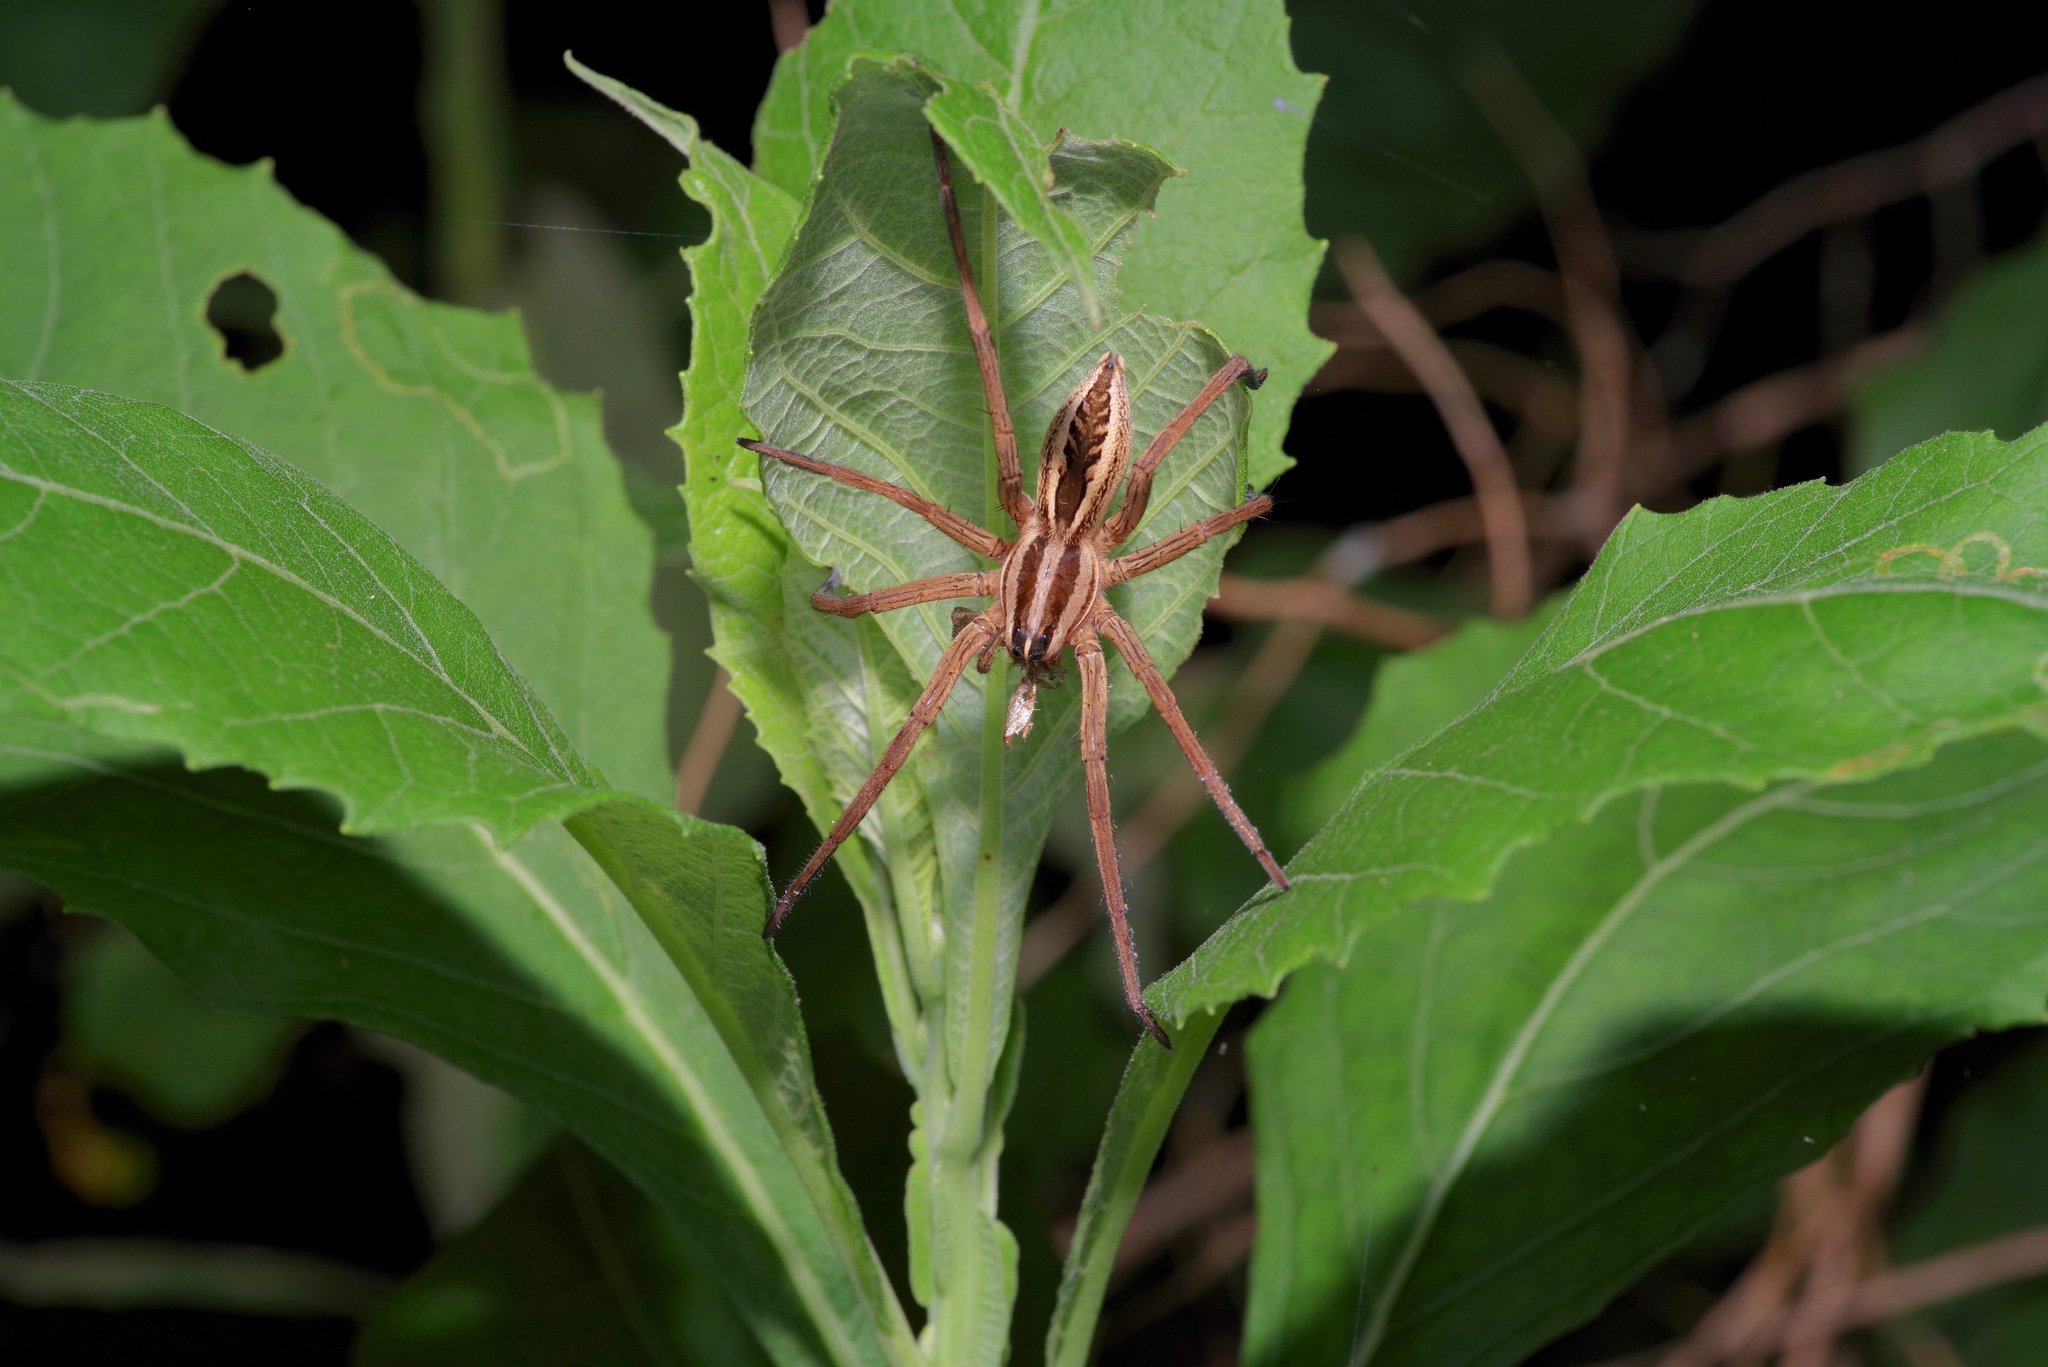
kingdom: Animalia
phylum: Arthropoda
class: Arachnida
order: Araneae
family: Lycosidae
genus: Rabidosa
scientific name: Rabidosa rabida
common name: Rabid wolf spider
